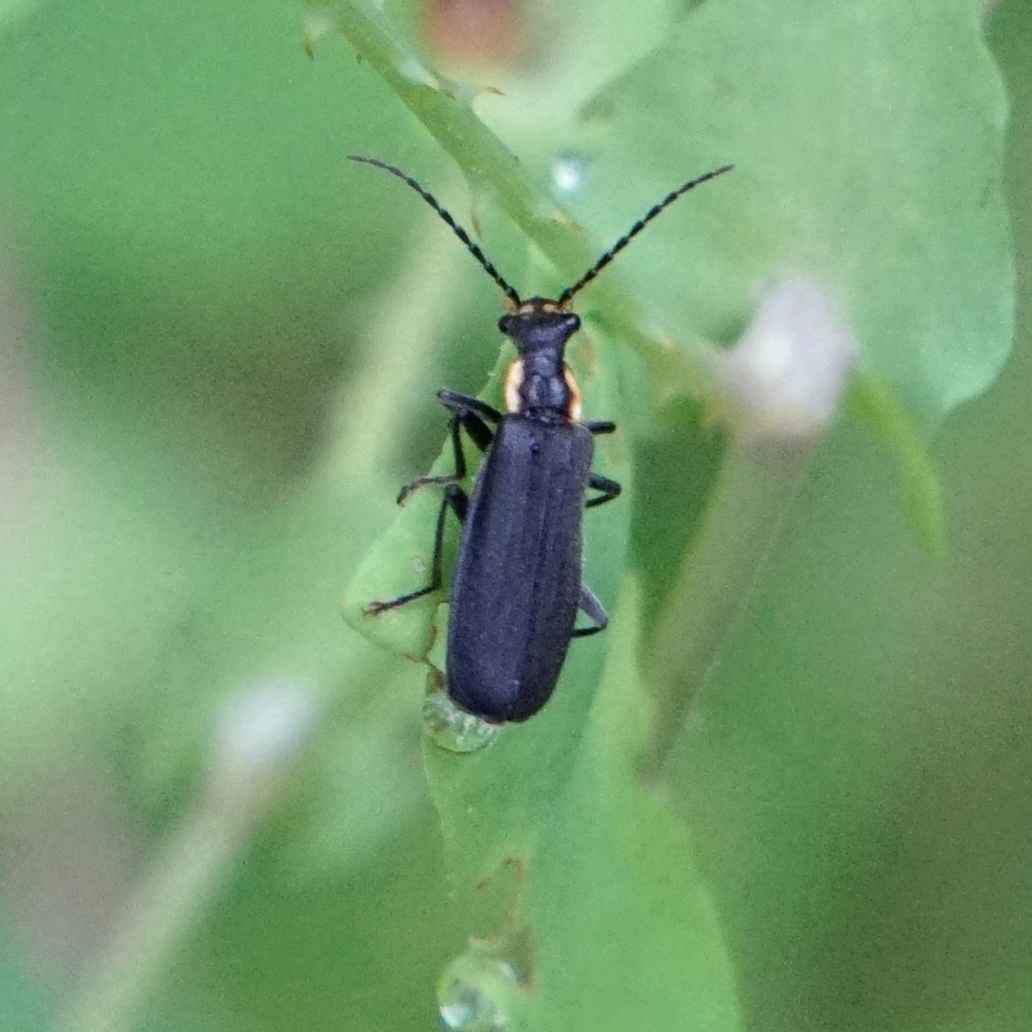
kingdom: Animalia
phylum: Arthropoda
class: Insecta
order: Coleoptera
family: Cantharidae
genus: Podabrus
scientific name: Podabrus rugosulus
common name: Wrinkled soldier beetle
